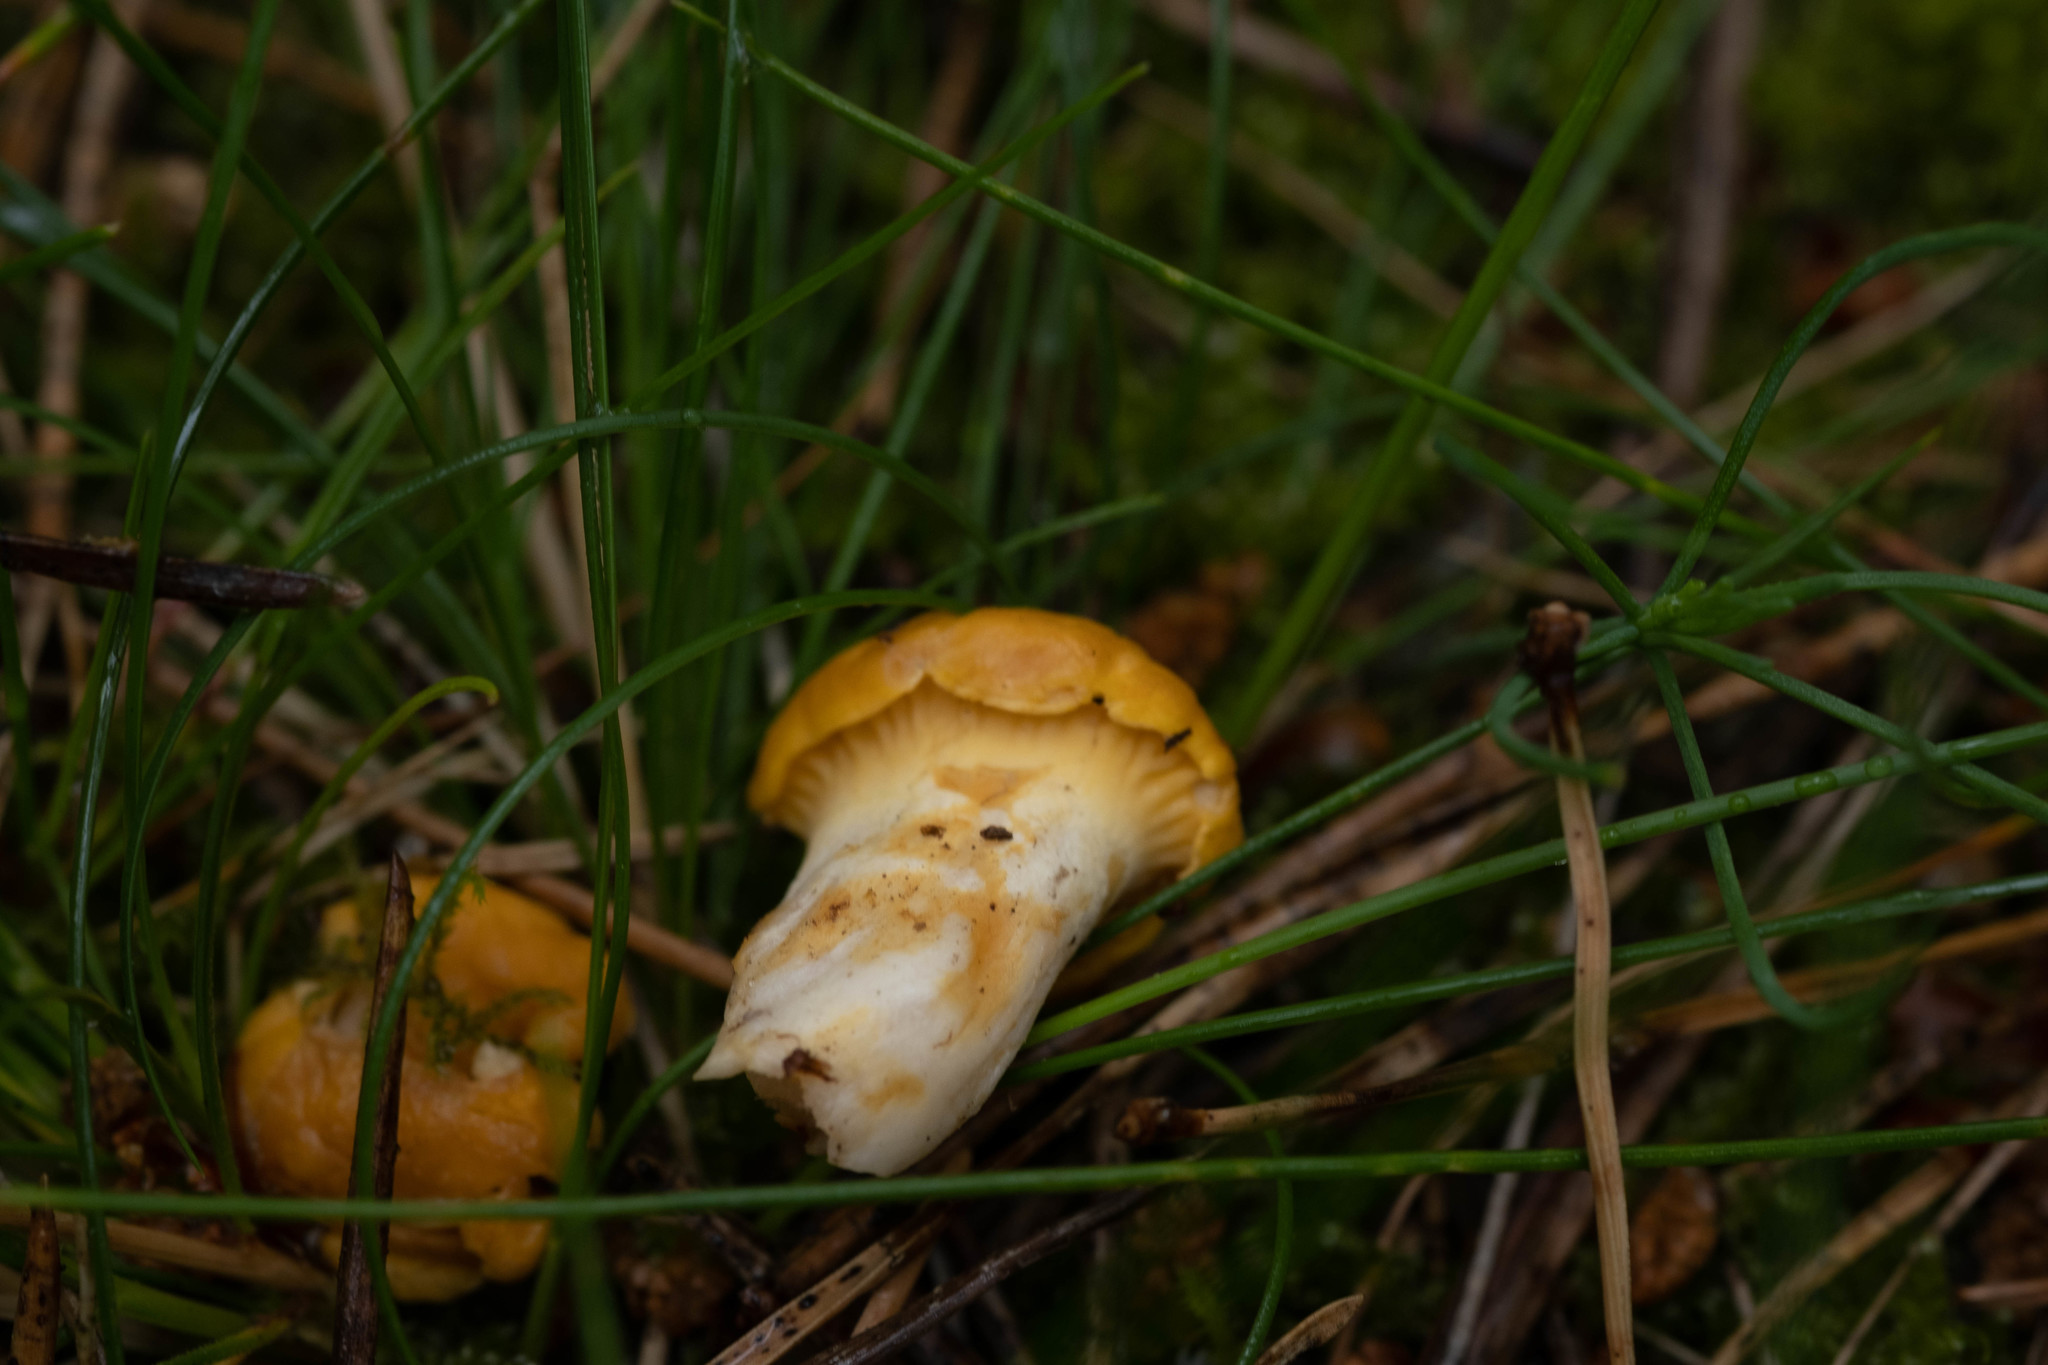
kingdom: Fungi
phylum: Basidiomycota
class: Agaricomycetes
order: Cantharellales
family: Hydnaceae
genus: Cantharellus
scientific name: Cantharellus cibarius
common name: Chanterelle
